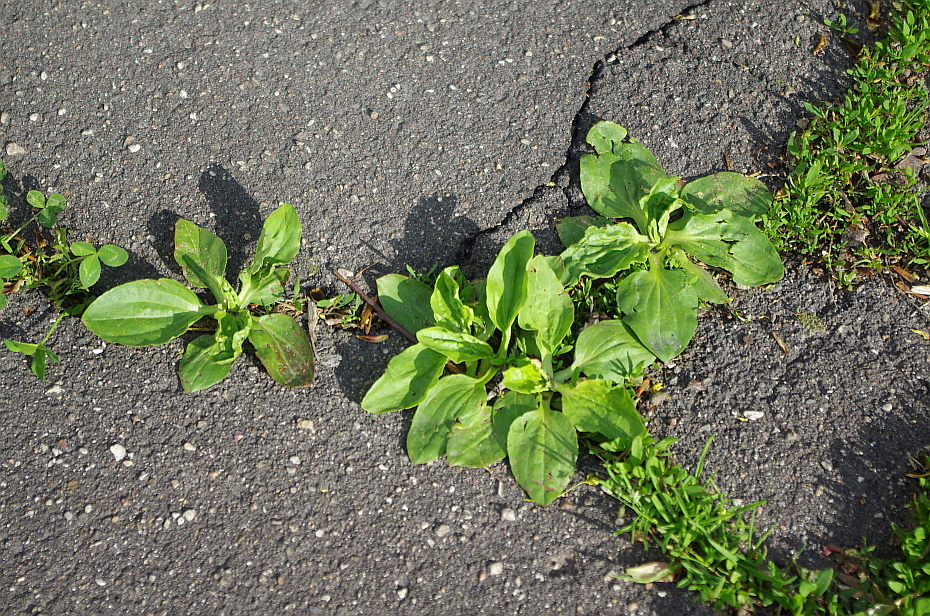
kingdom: Plantae
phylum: Tracheophyta
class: Magnoliopsida
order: Lamiales
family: Plantaginaceae
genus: Plantago
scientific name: Plantago major
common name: Common plantain
